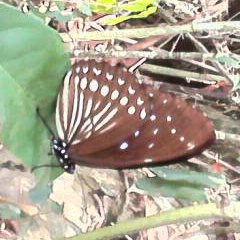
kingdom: Animalia
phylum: Arthropoda
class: Insecta
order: Lepidoptera
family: Nymphalidae
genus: Penthema
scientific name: Penthema darlisa
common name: Three-coloured kaiser
